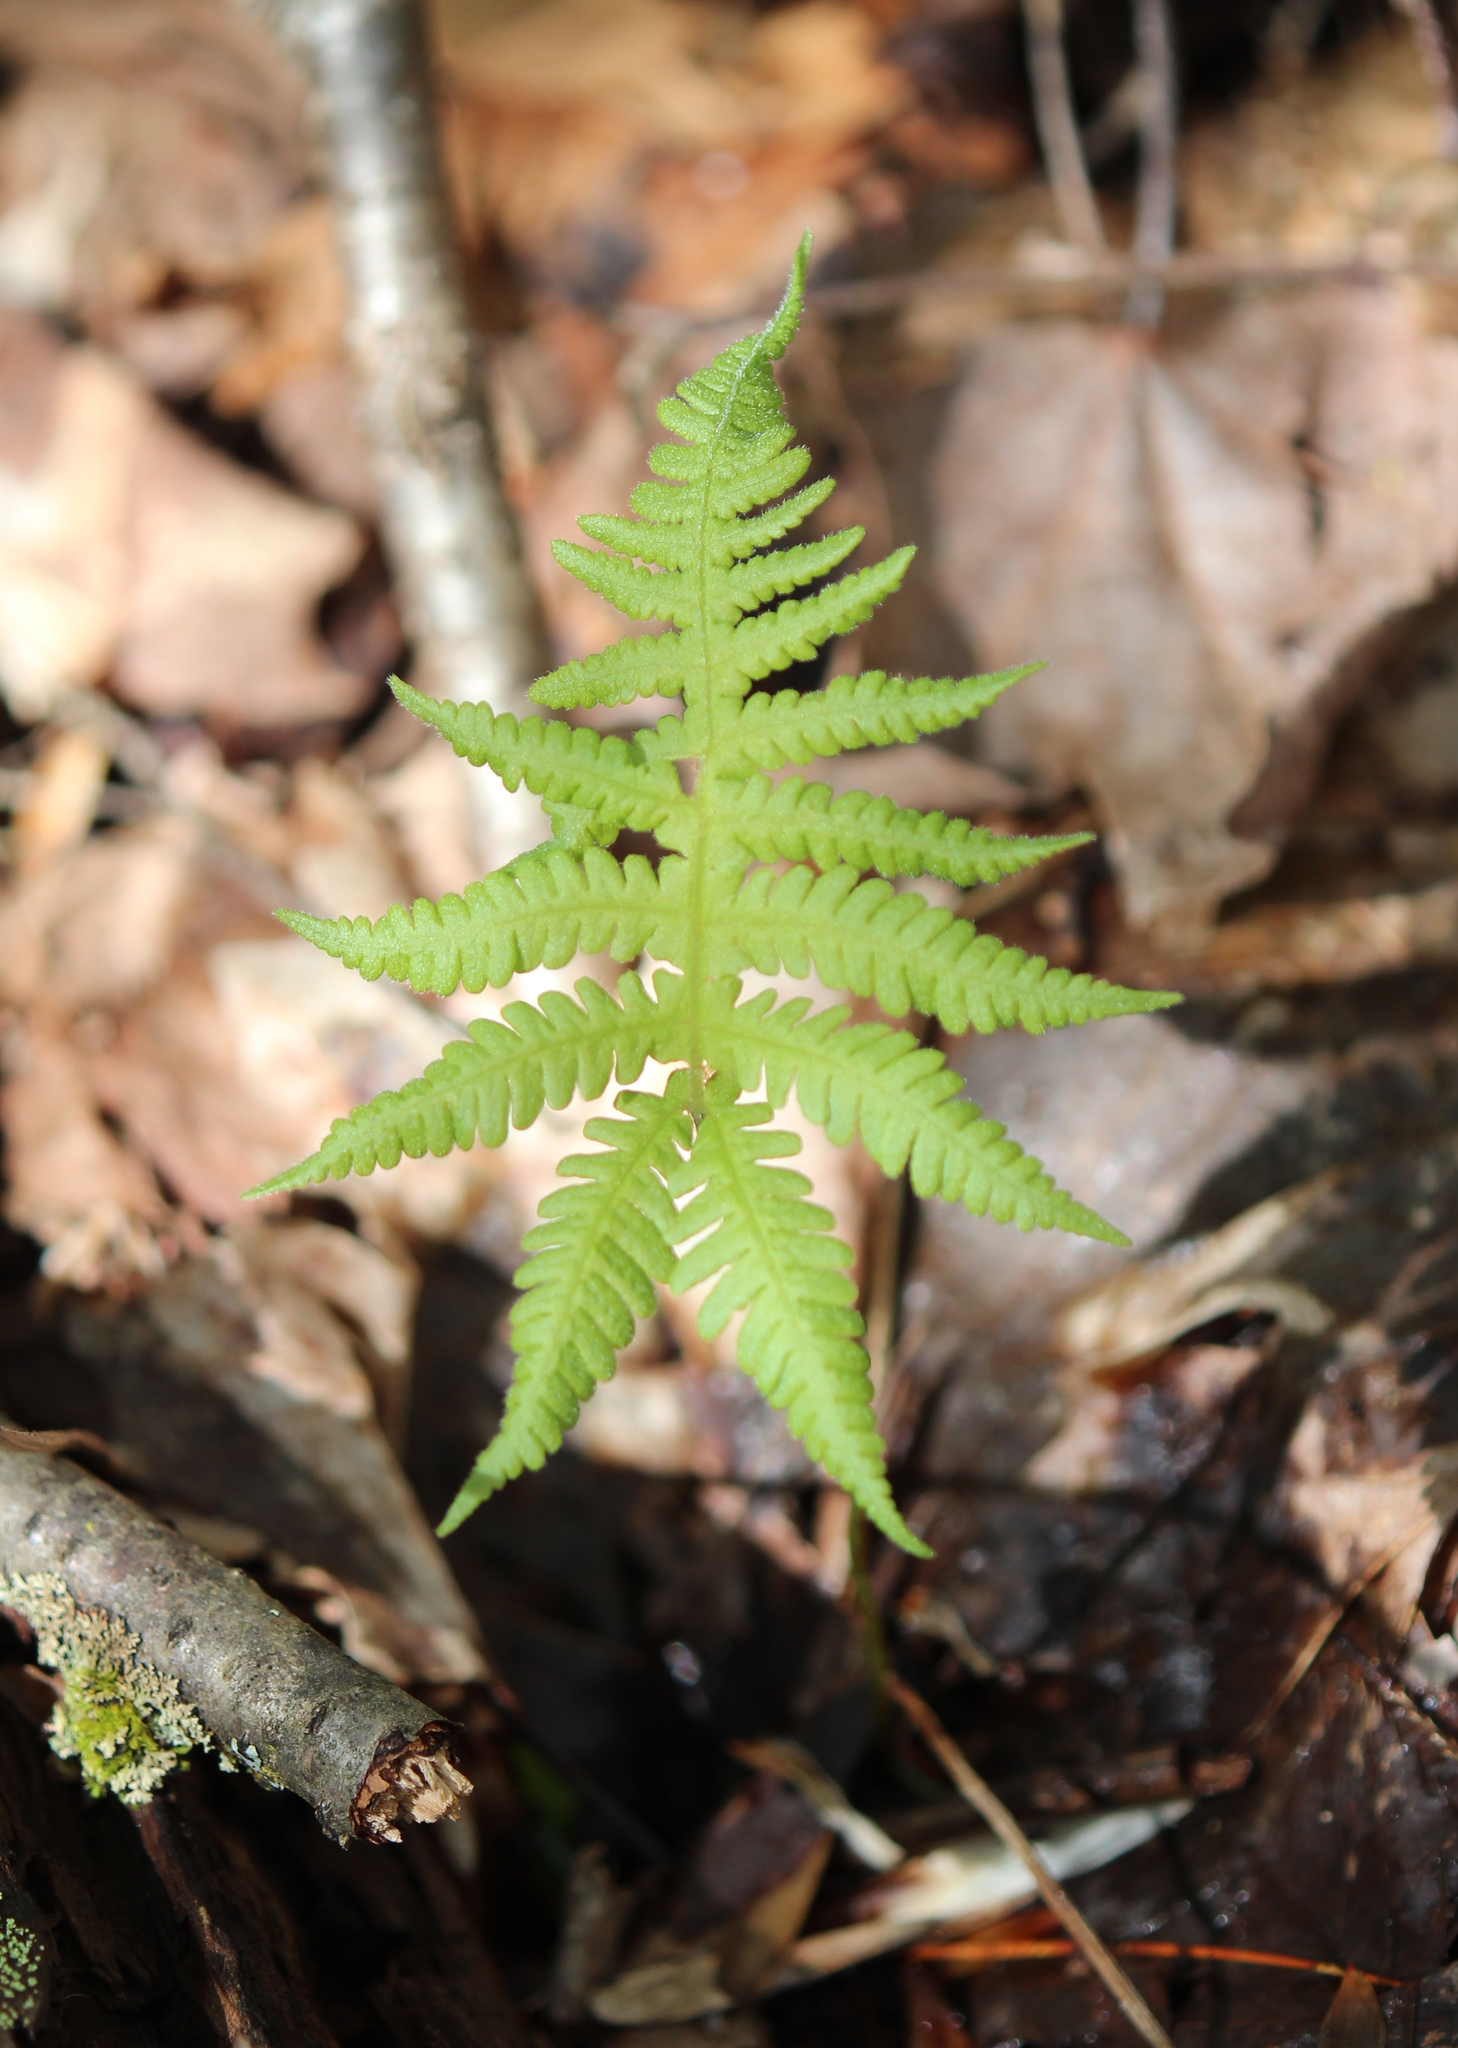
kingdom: Plantae
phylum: Tracheophyta
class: Polypodiopsida
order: Polypodiales
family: Thelypteridaceae
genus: Phegopteris
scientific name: Phegopteris connectilis
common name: Beech fern
